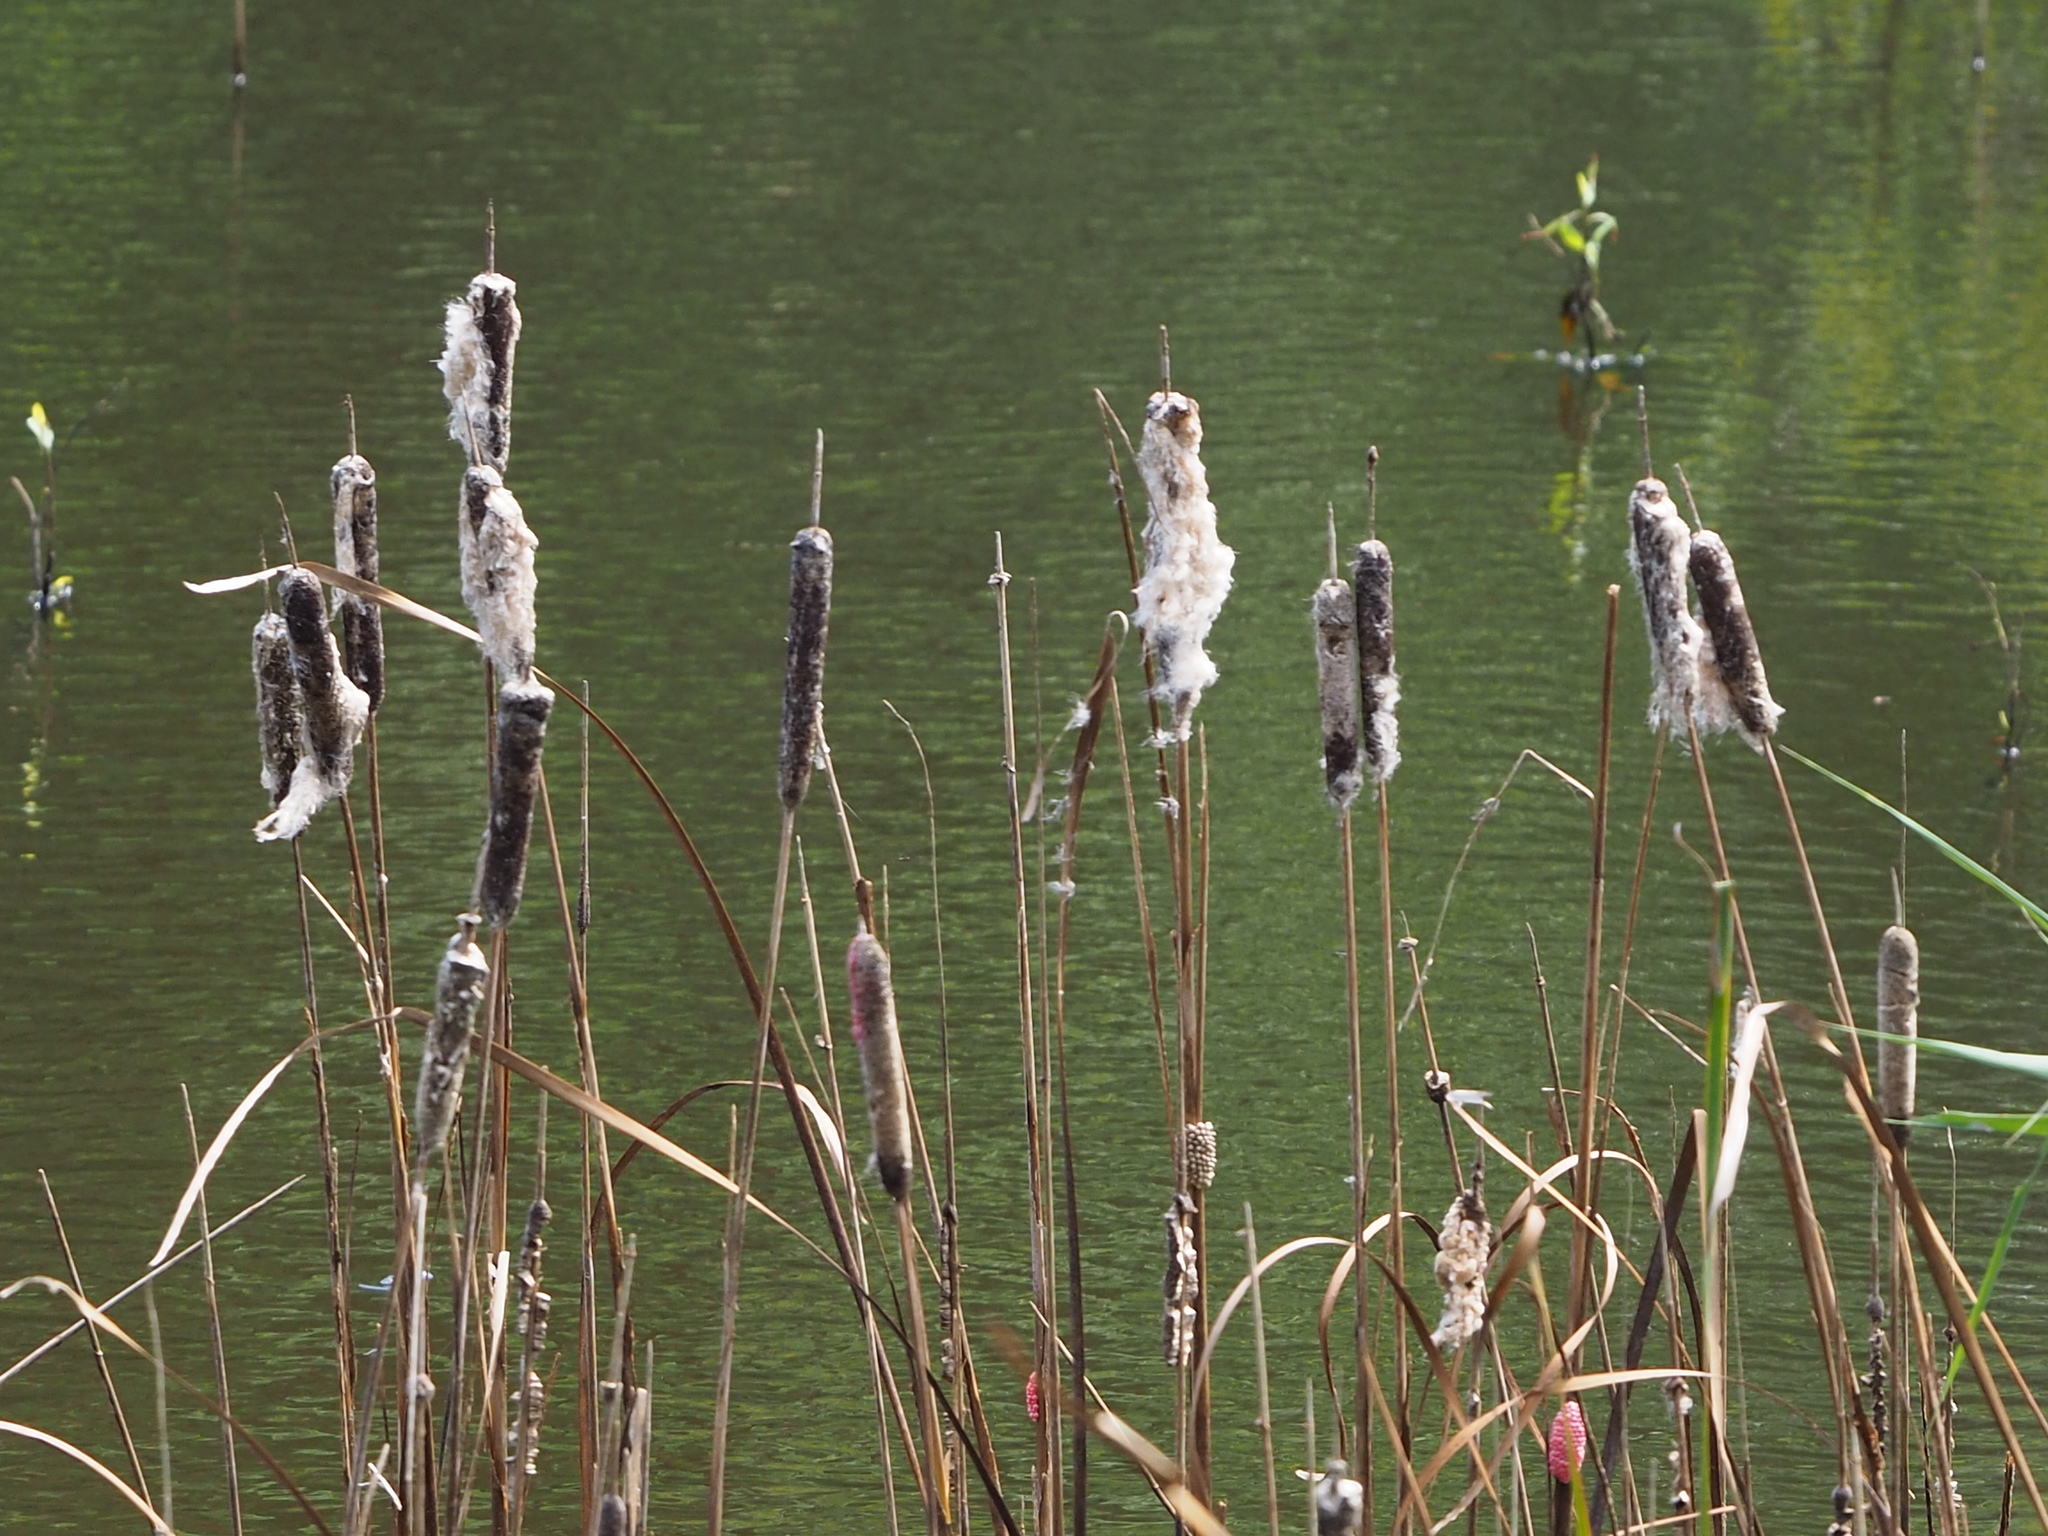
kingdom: Plantae
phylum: Tracheophyta
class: Liliopsida
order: Poales
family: Typhaceae
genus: Typha
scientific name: Typha orientalis
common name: Bullrush
